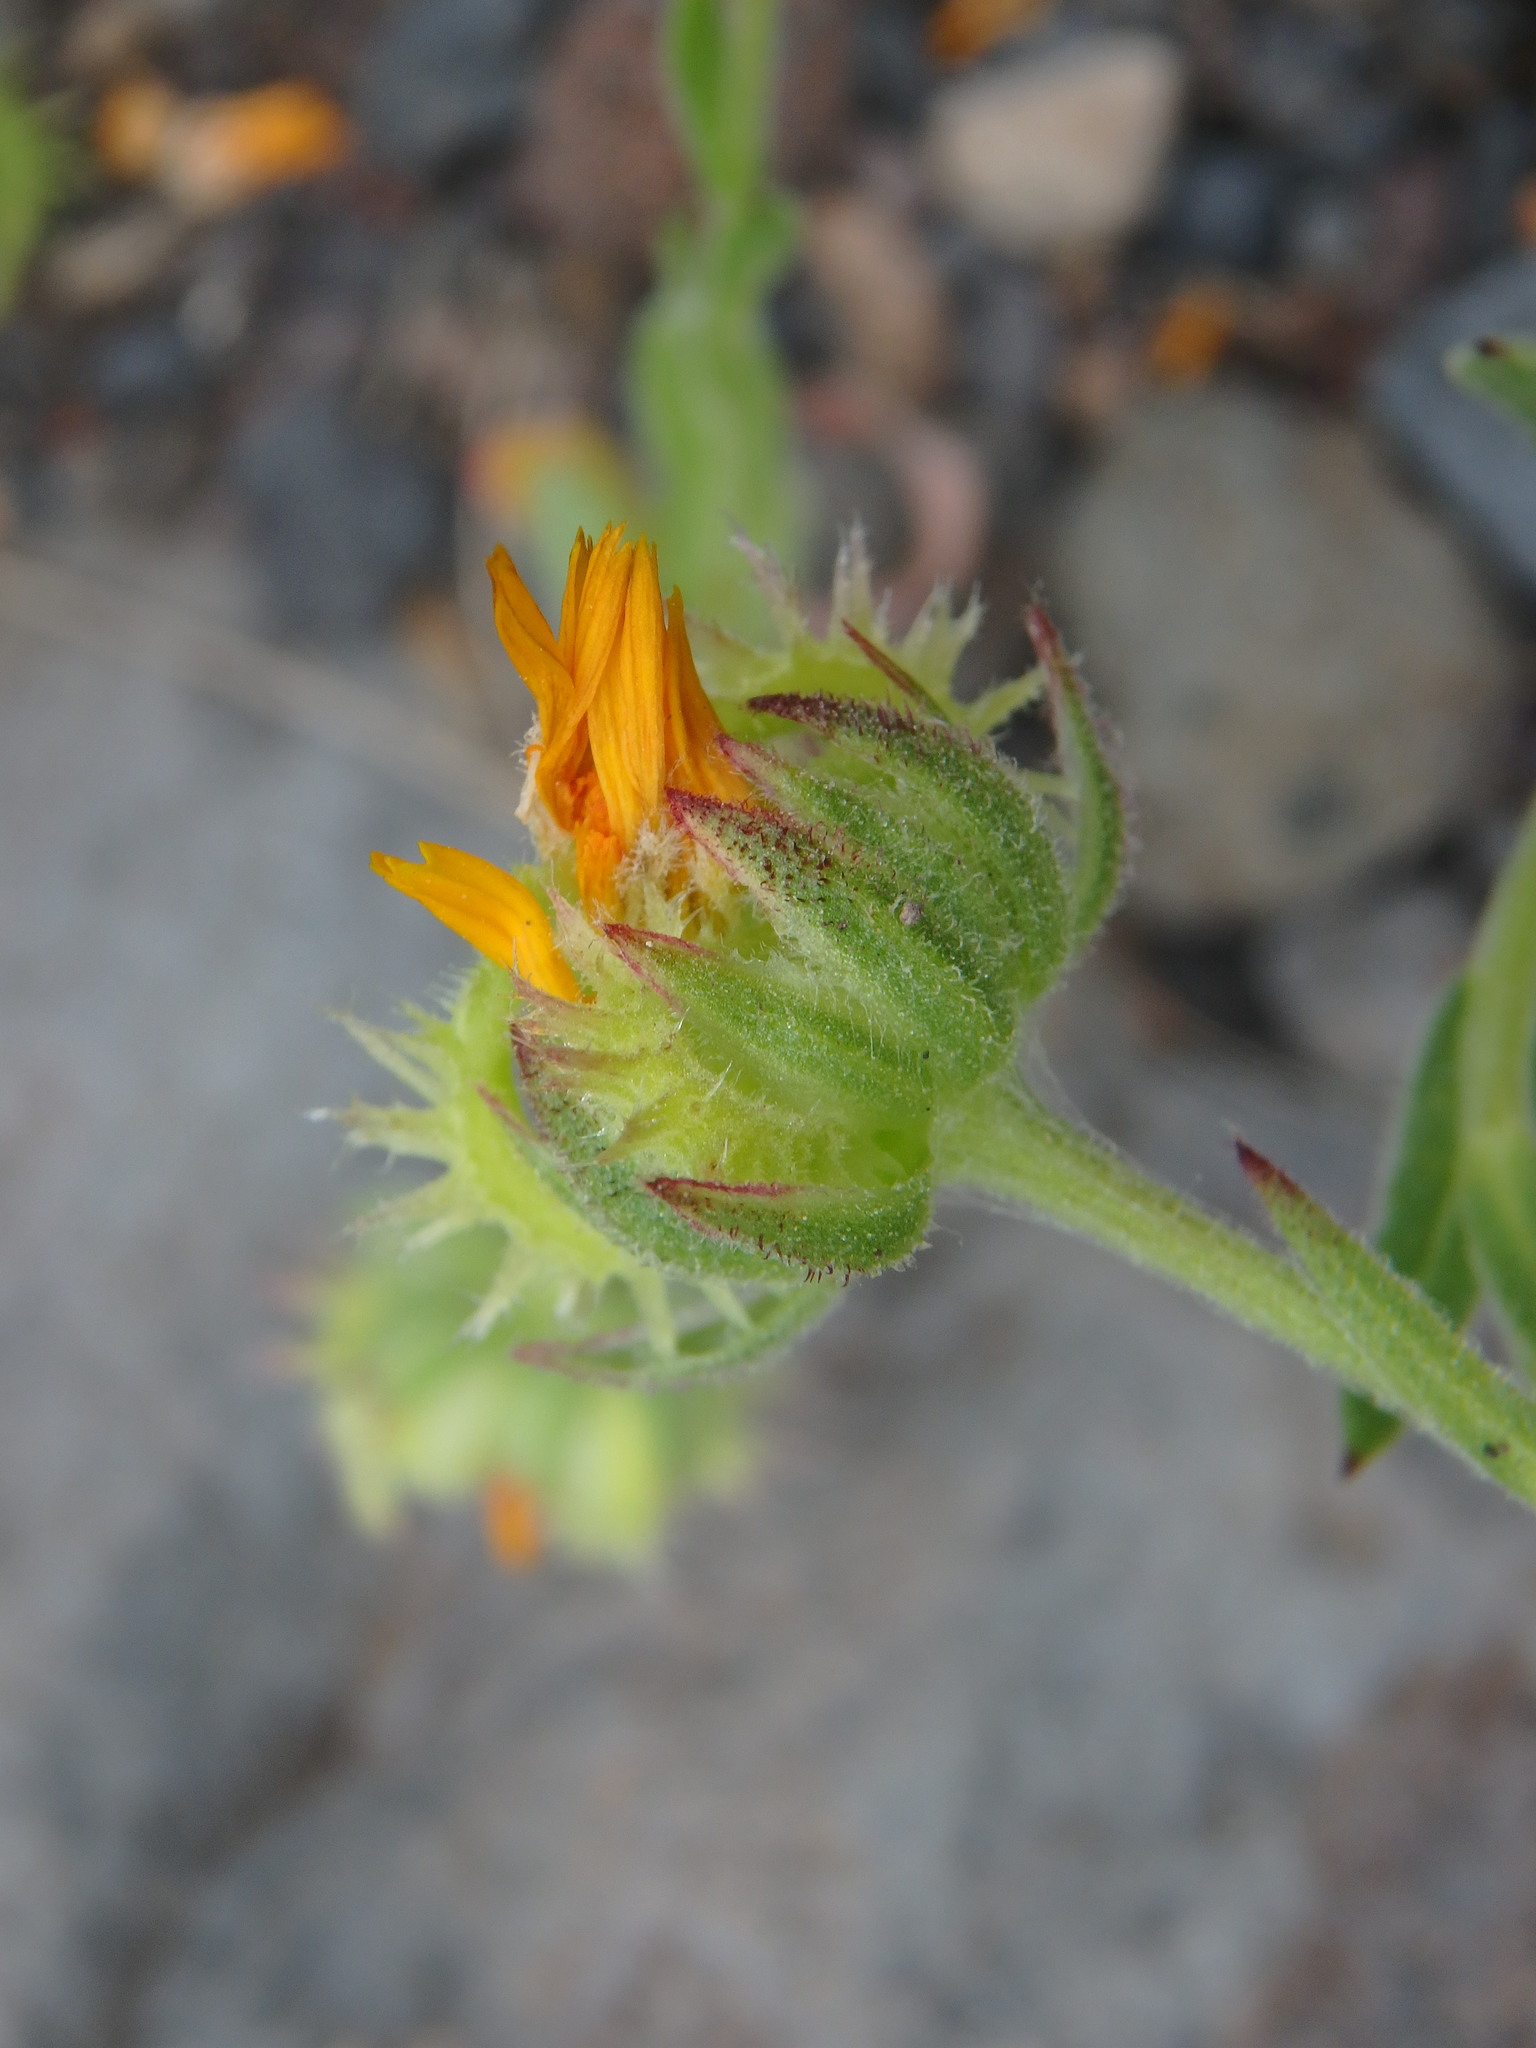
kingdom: Plantae
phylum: Tracheophyta
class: Magnoliopsida
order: Asterales
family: Asteraceae
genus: Calendula
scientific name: Calendula arvensis
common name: Field marigold
